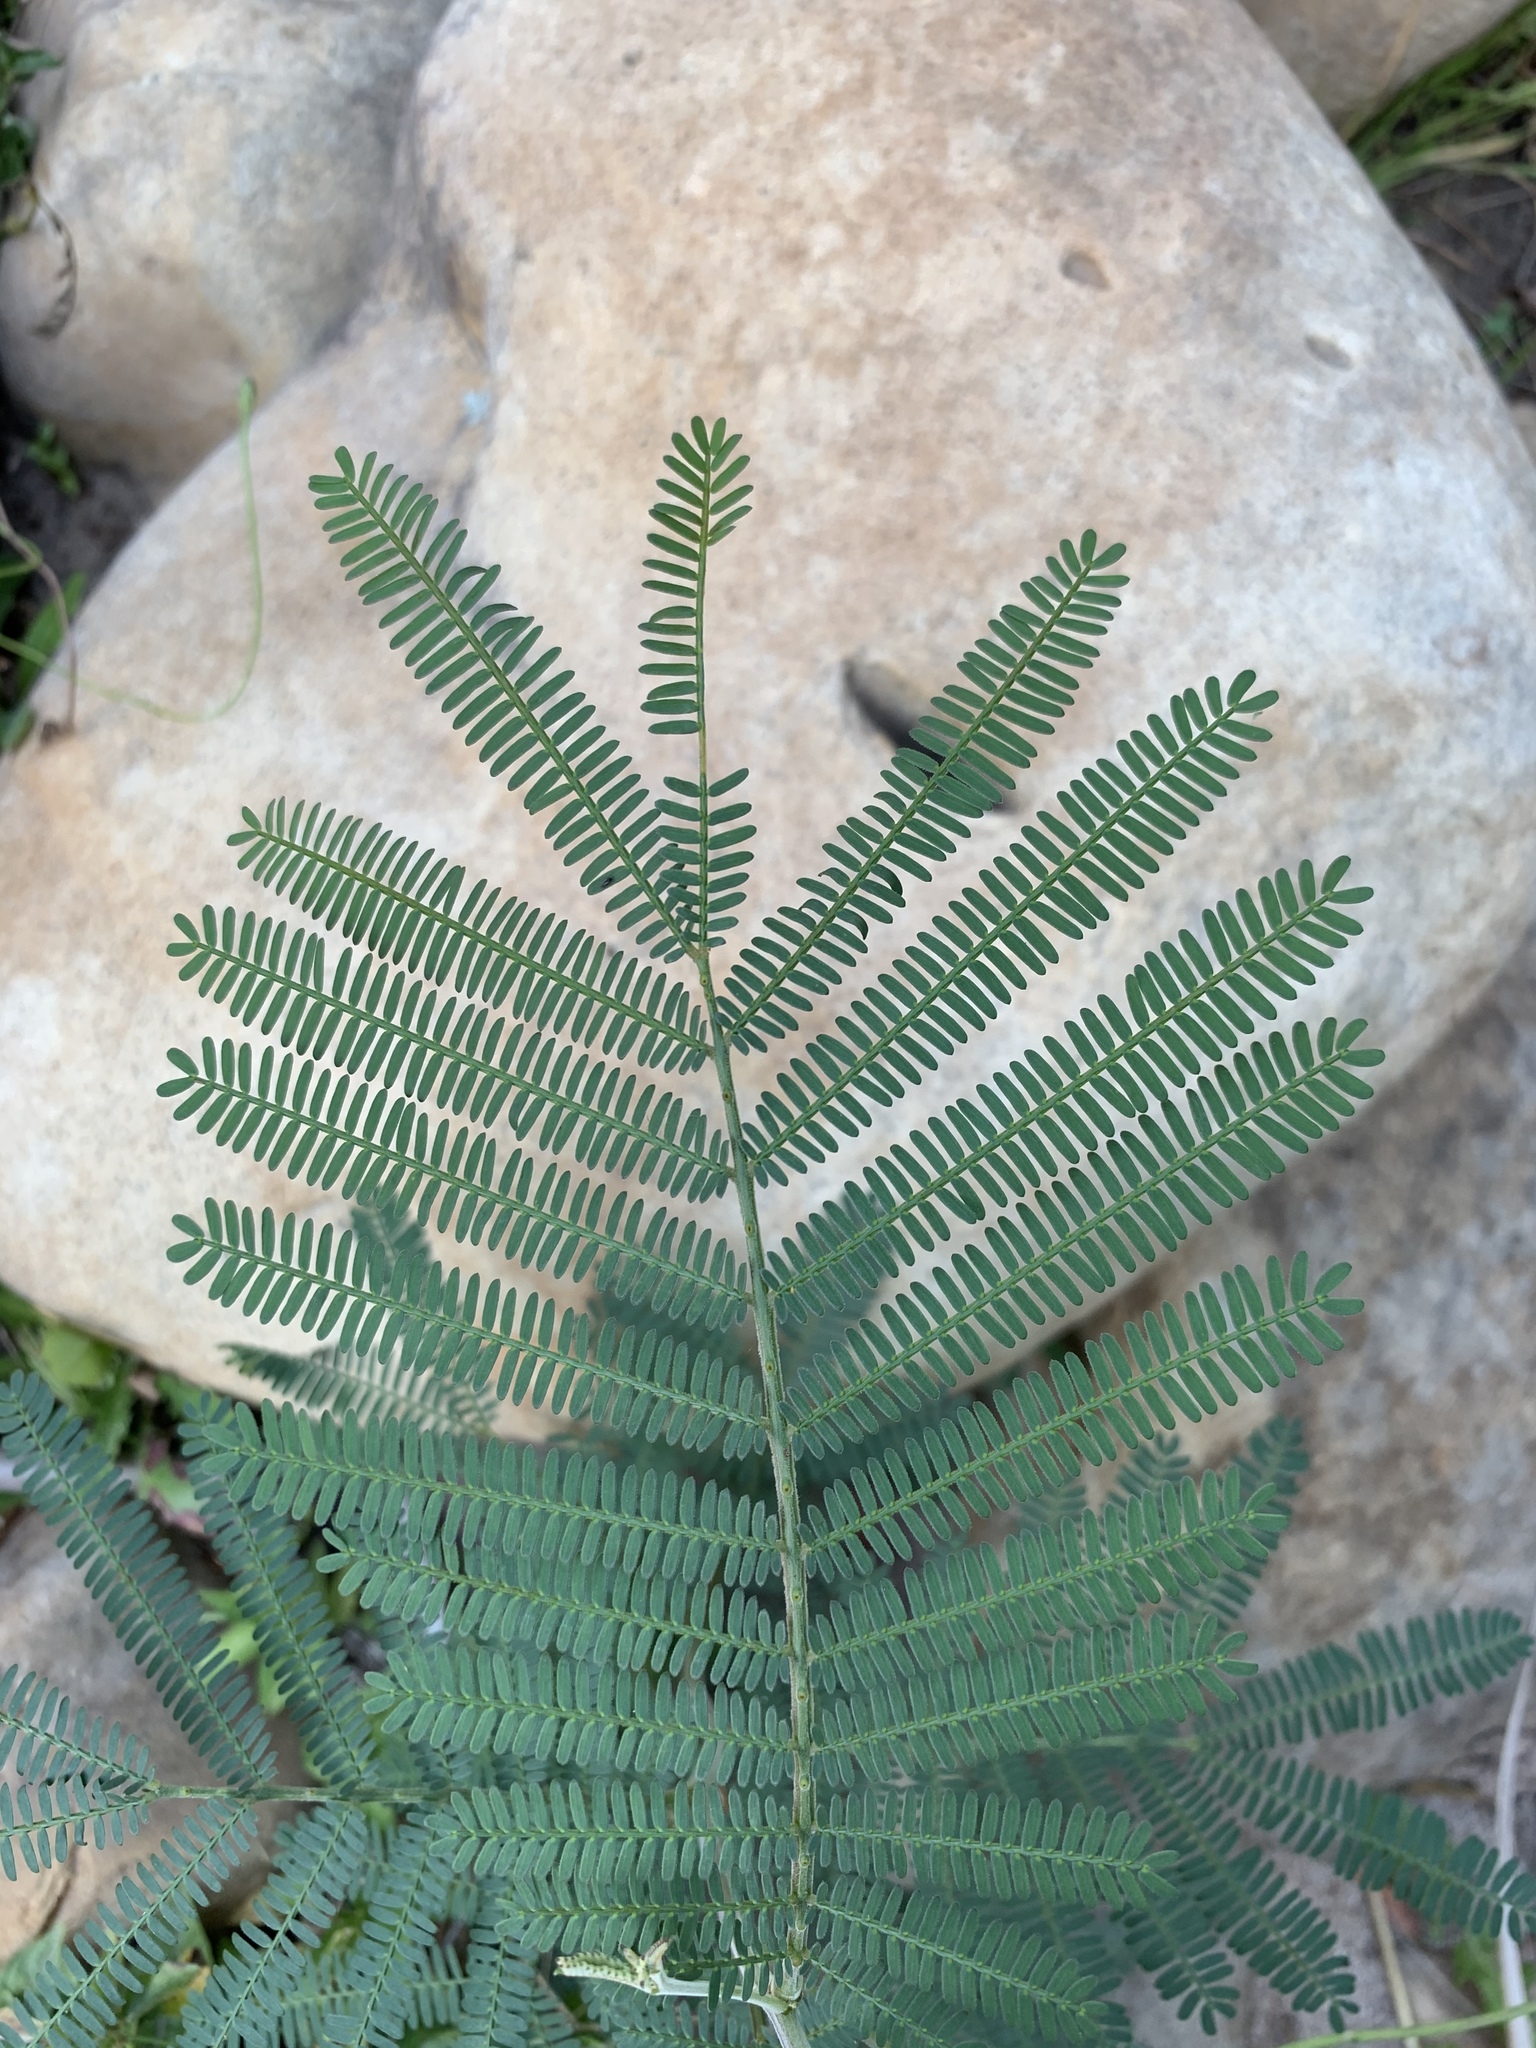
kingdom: Plantae
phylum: Tracheophyta
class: Magnoliopsida
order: Fabales
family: Fabaceae
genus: Acacia
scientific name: Acacia mearnsii
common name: Black wattle
